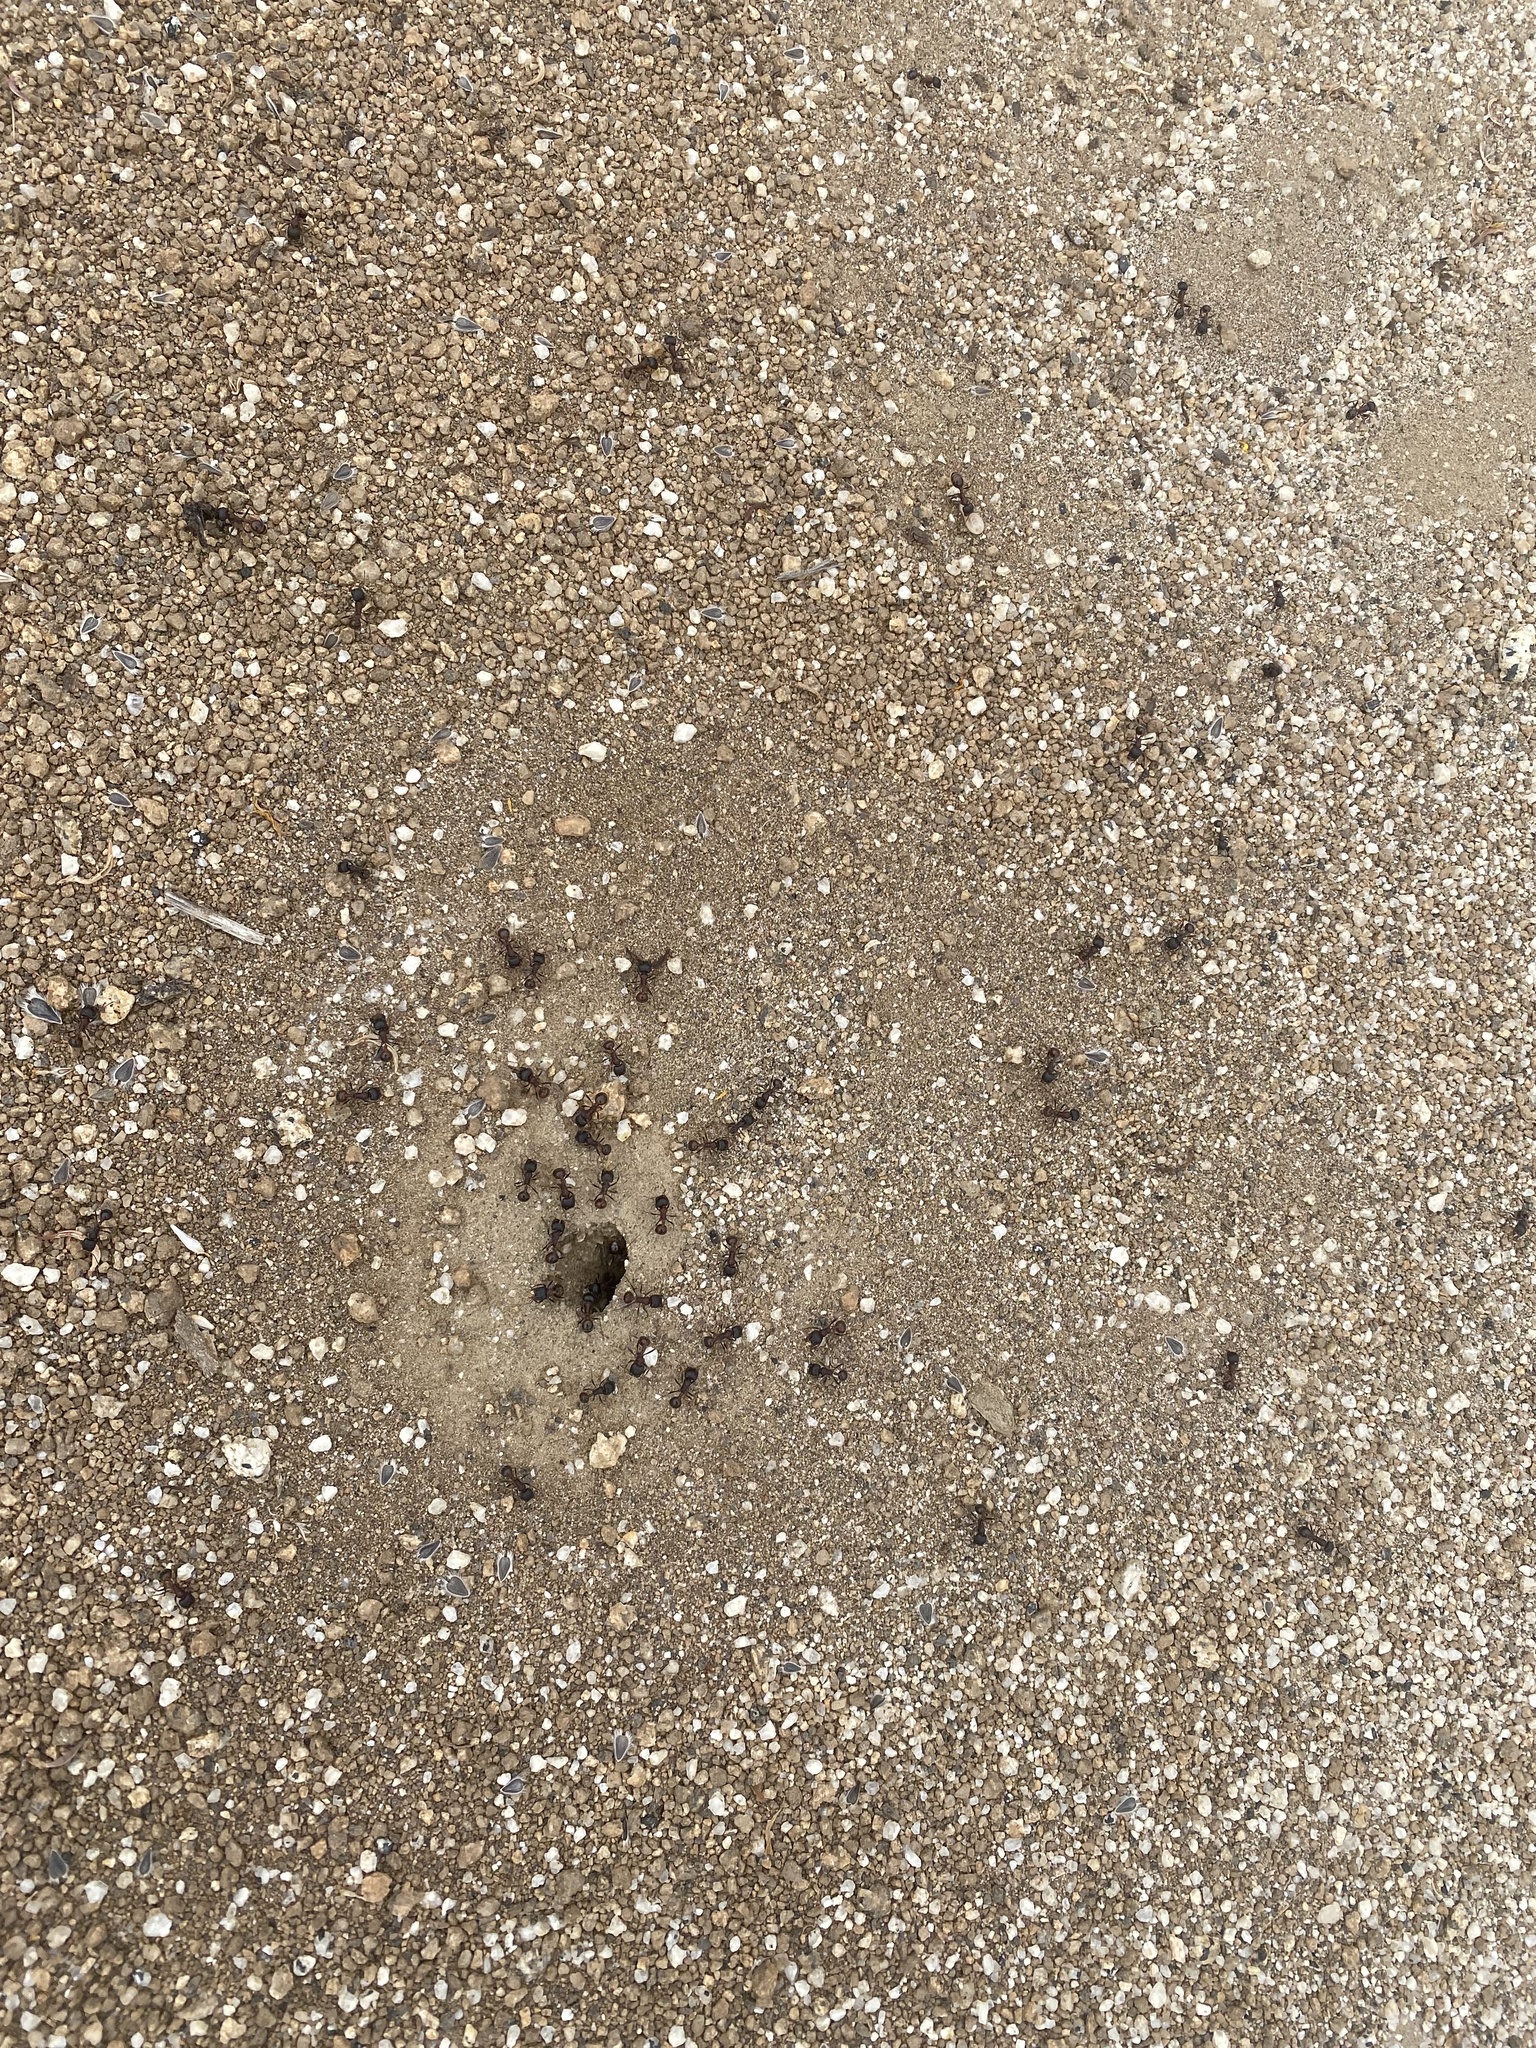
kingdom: Animalia
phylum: Arthropoda
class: Insecta
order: Hymenoptera
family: Formicidae
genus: Pogonomyrmex
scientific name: Pogonomyrmex rugosus
